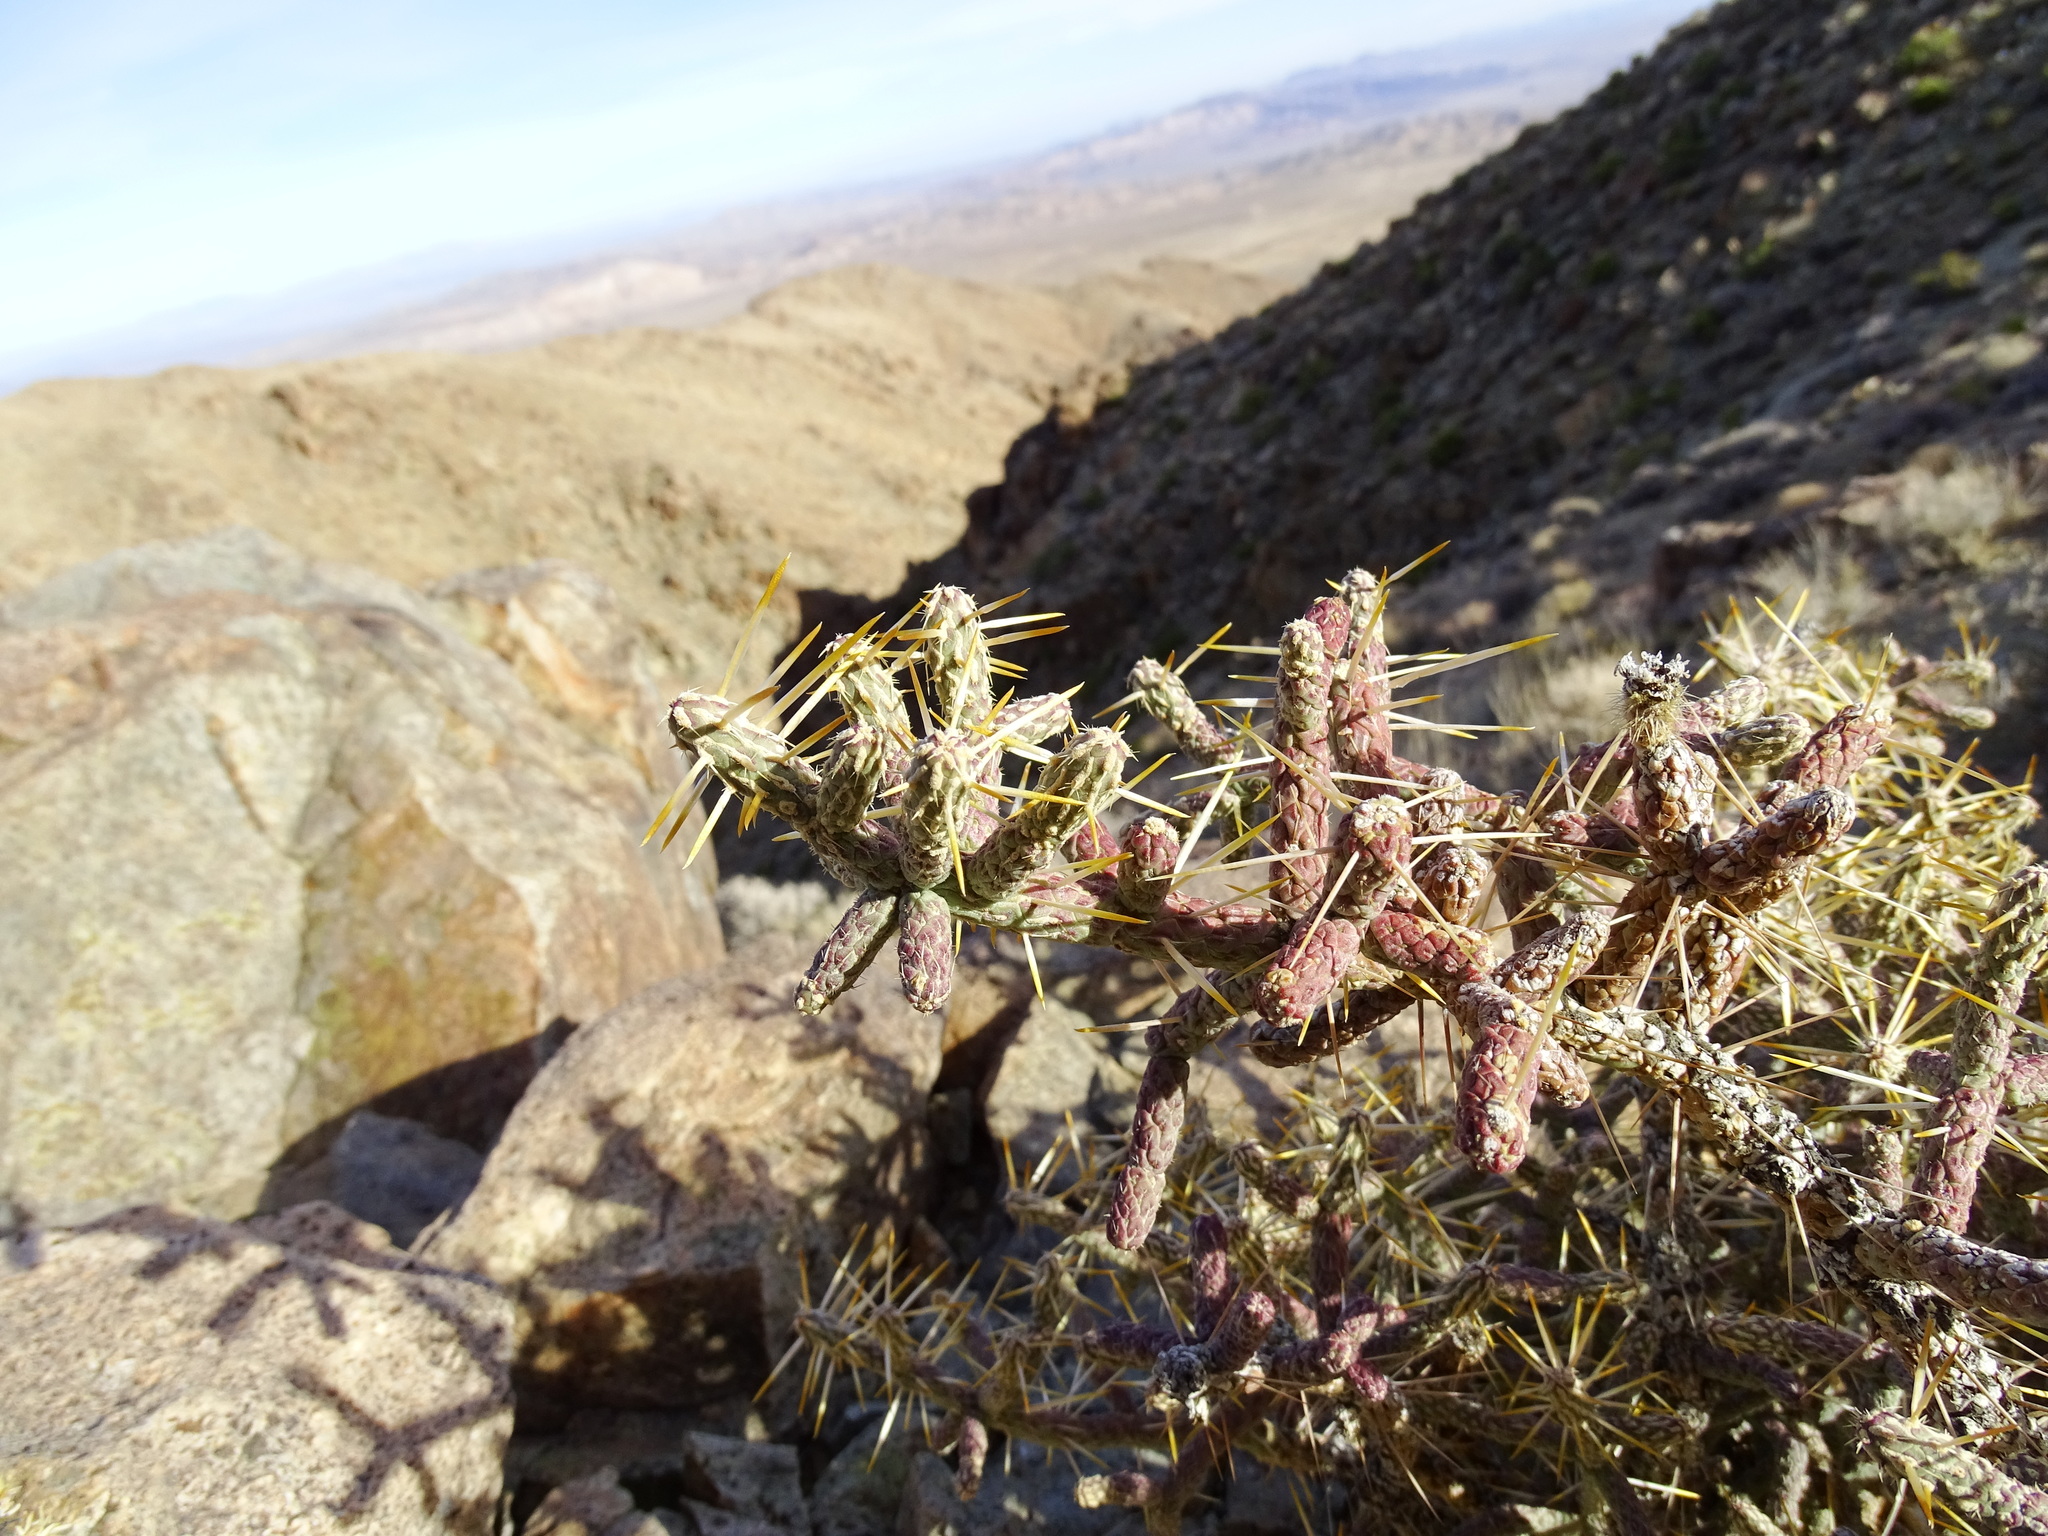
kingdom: Plantae
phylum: Tracheophyta
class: Magnoliopsida
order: Caryophyllales
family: Cactaceae
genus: Cylindropuntia
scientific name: Cylindropuntia ramosissima
